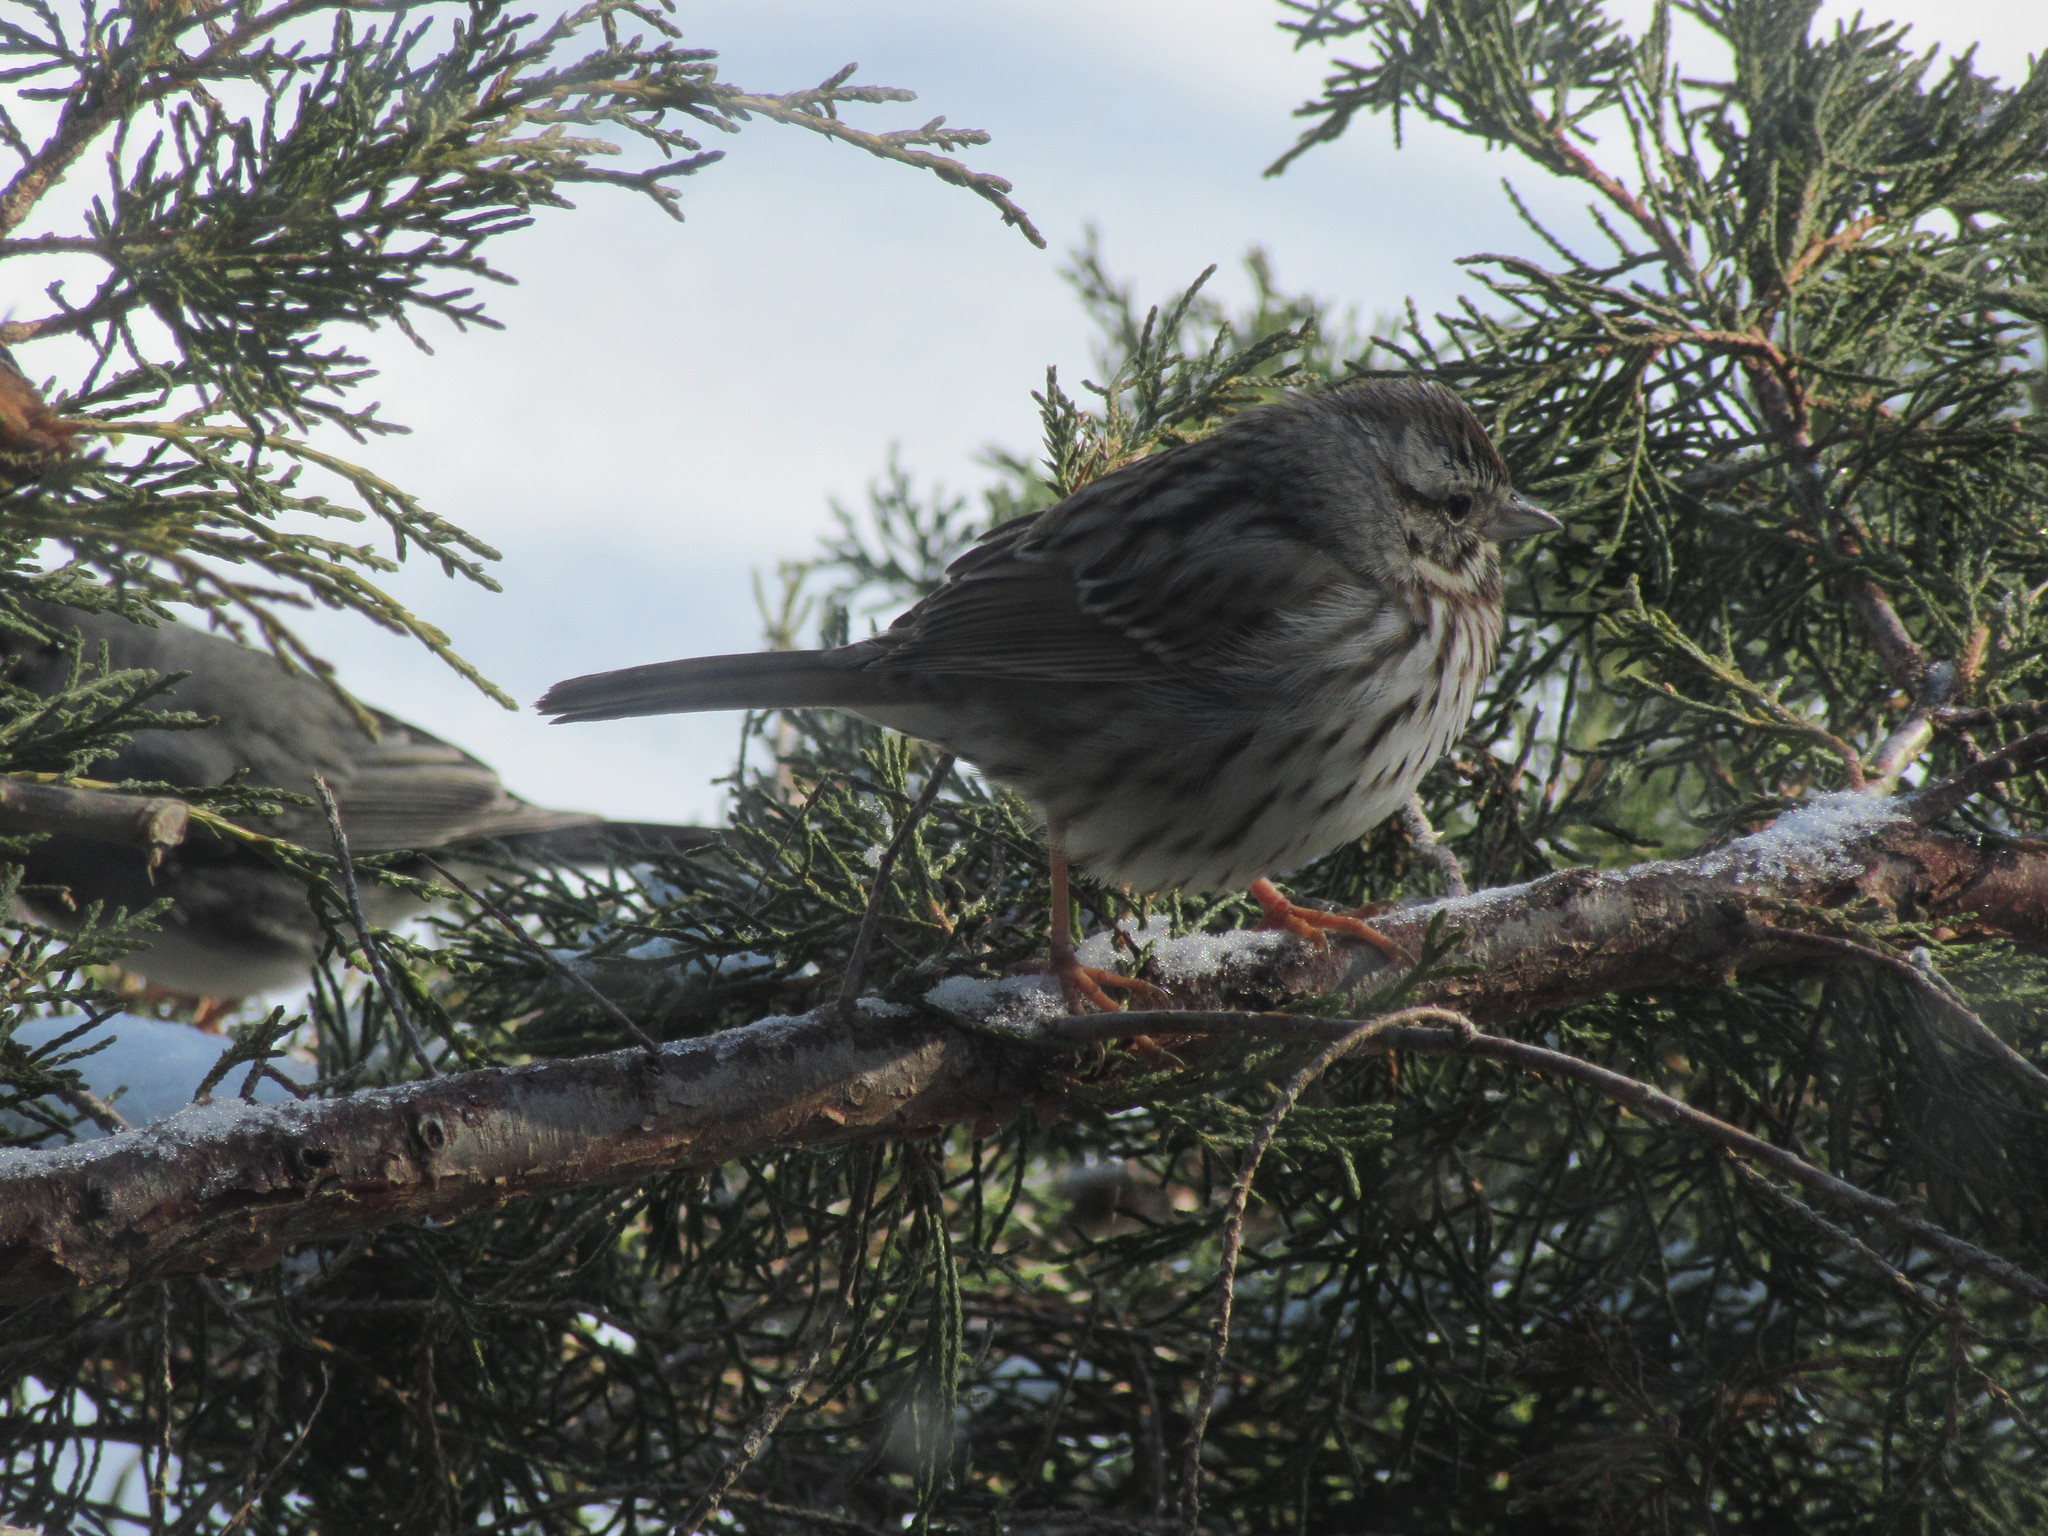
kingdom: Animalia
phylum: Chordata
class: Aves
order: Passeriformes
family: Passerellidae
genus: Melospiza
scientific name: Melospiza melodia
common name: Song sparrow
